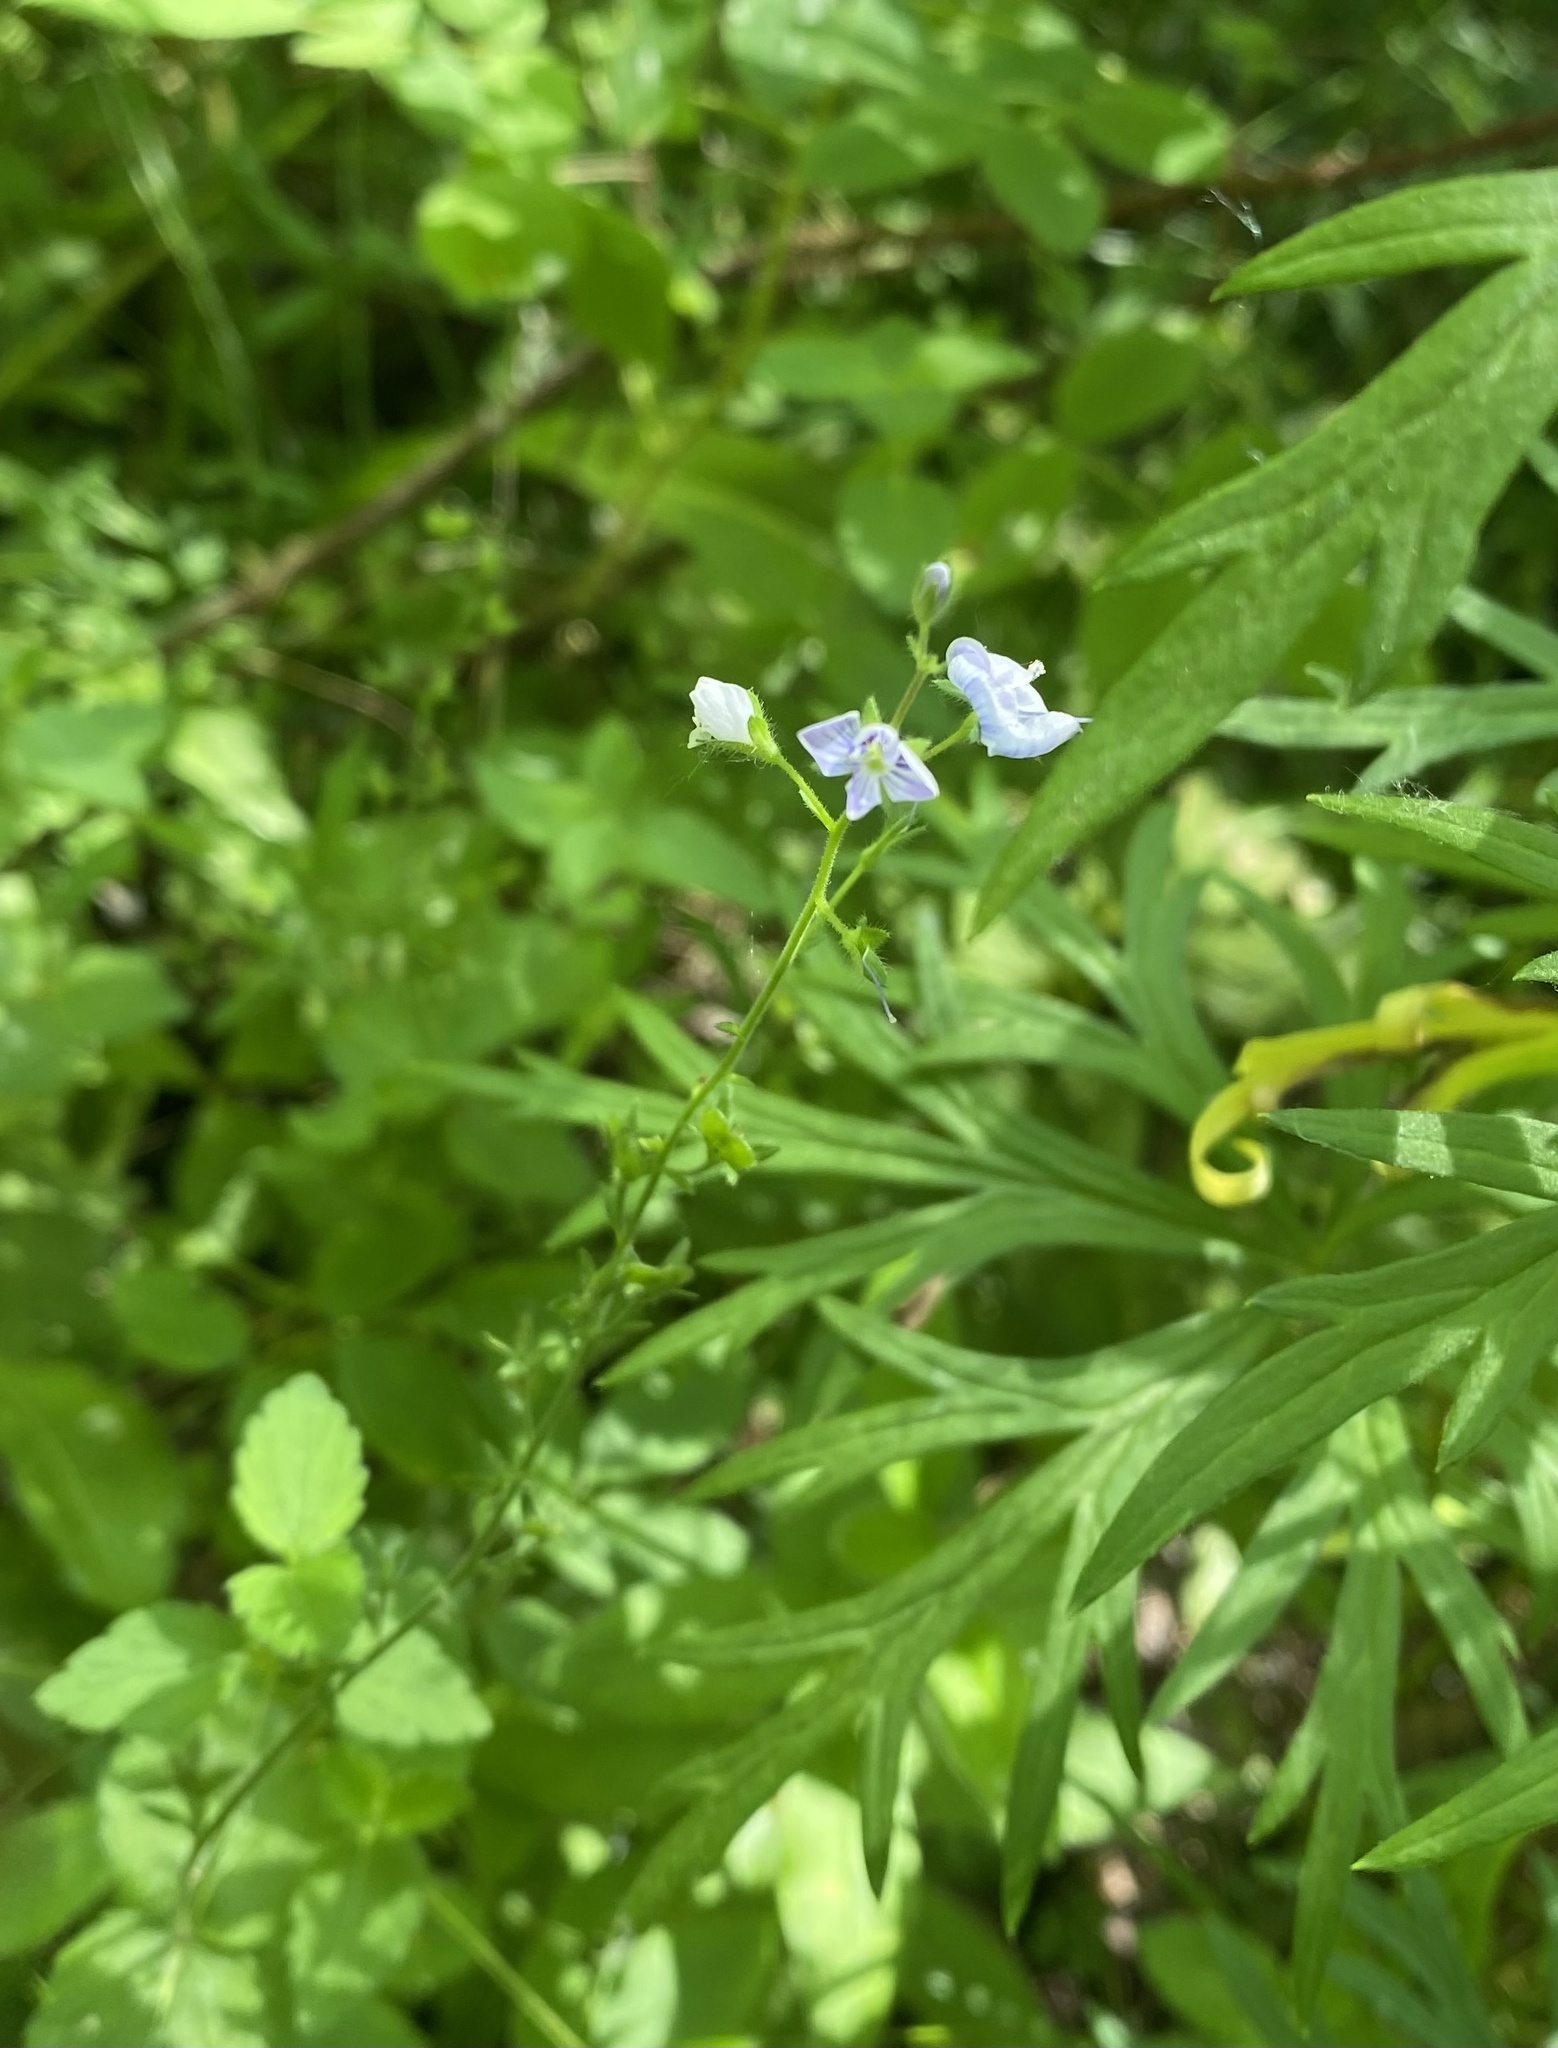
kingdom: Plantae
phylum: Tracheophyta
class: Magnoliopsida
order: Lamiales
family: Plantaginaceae
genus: Veronica
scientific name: Veronica chamaedrys
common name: Germander speedwell
